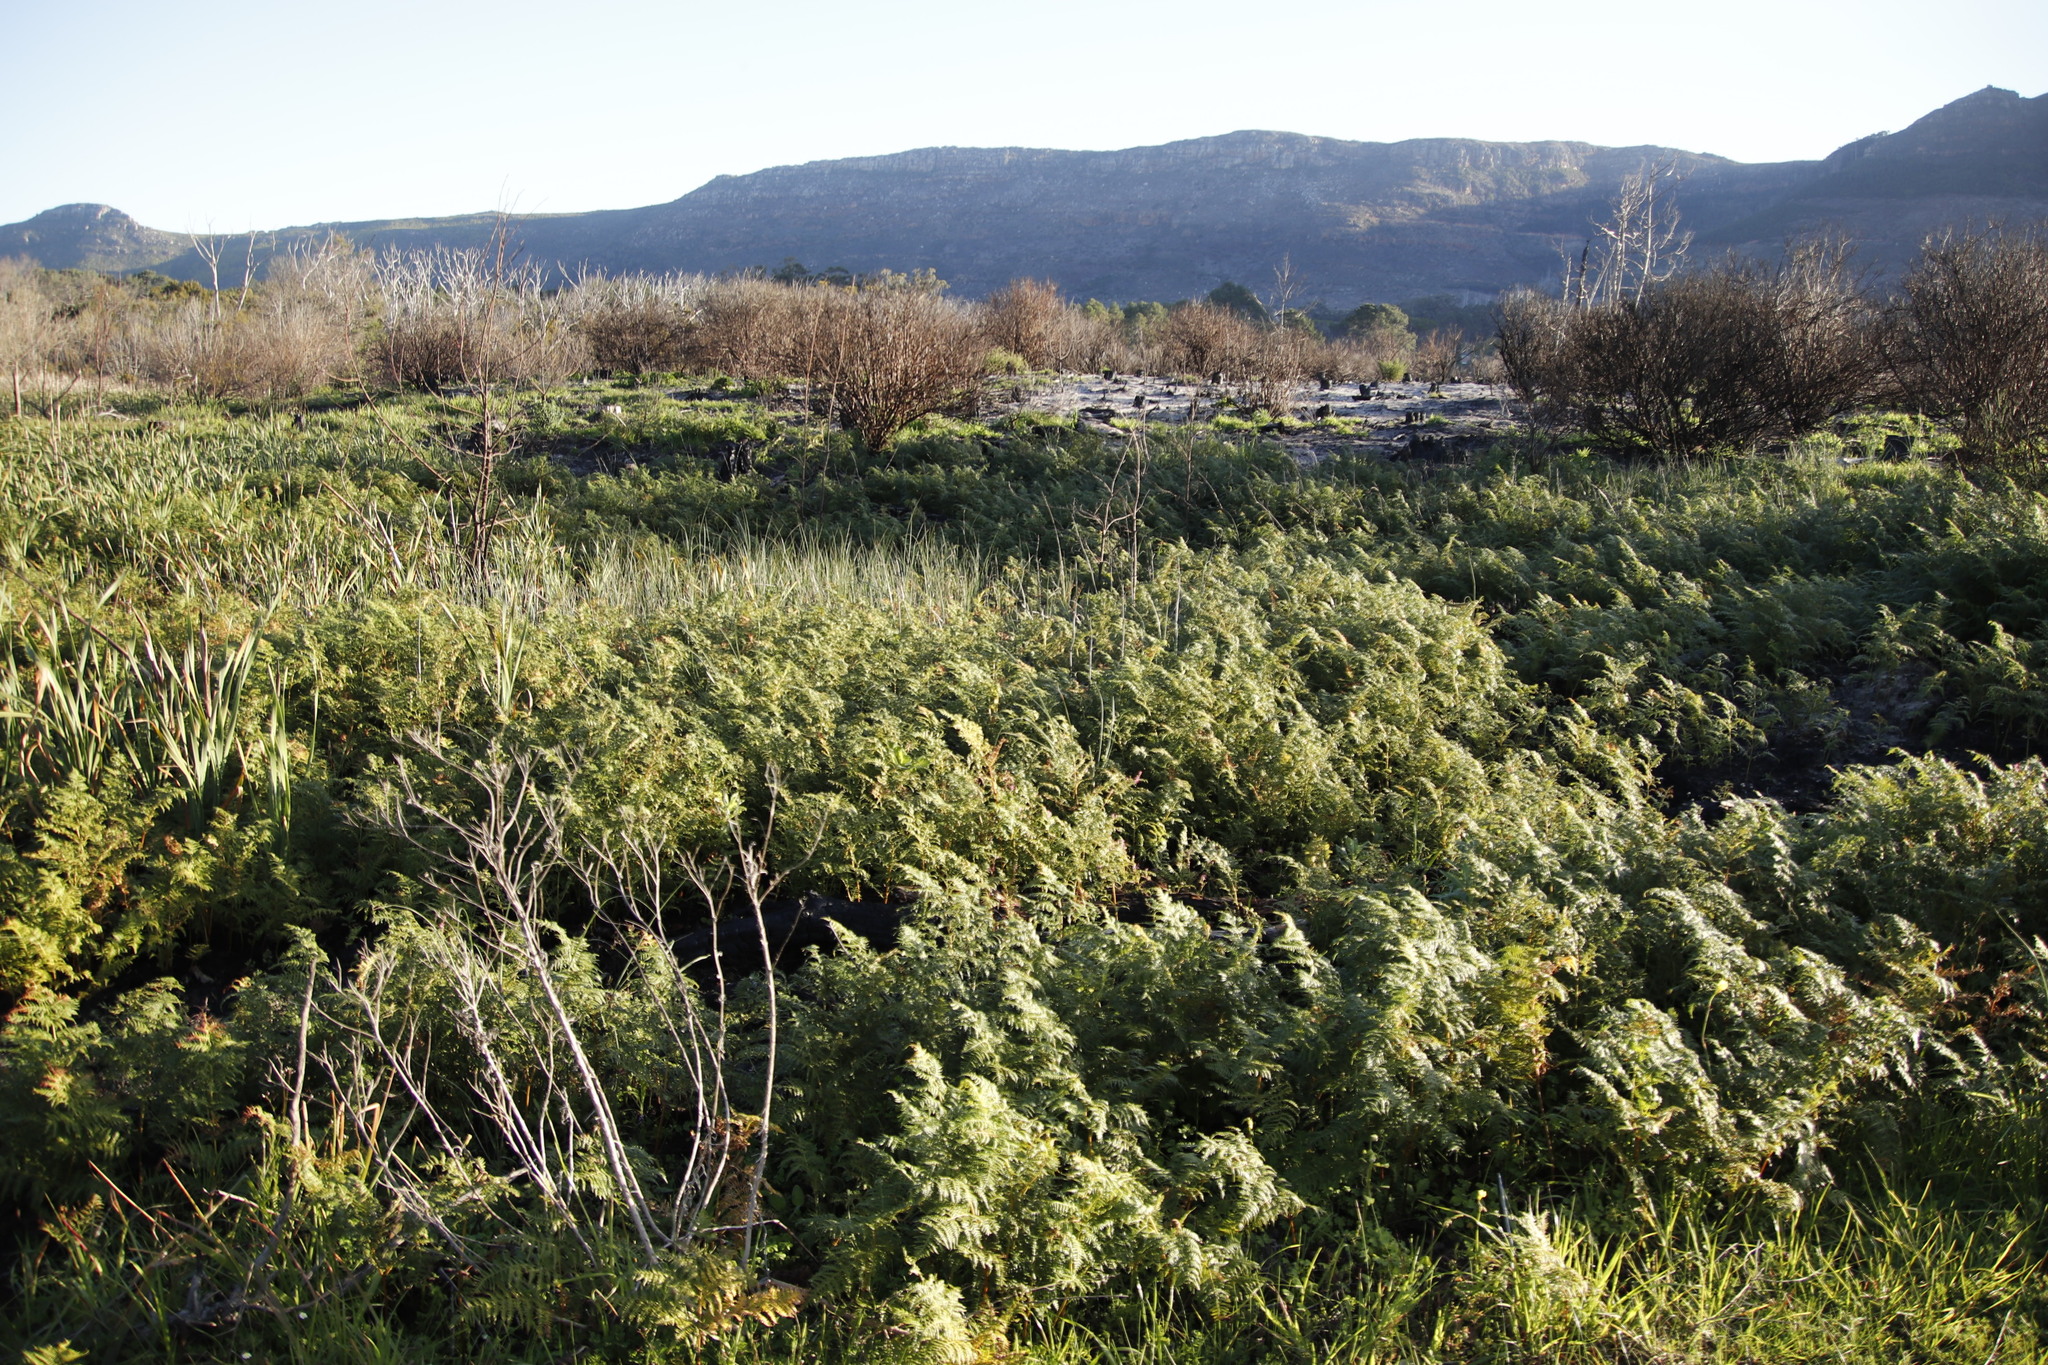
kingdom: Plantae
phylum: Tracheophyta
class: Polypodiopsida
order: Polypodiales
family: Dennstaedtiaceae
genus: Pteridium
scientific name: Pteridium aquilinum
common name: Bracken
